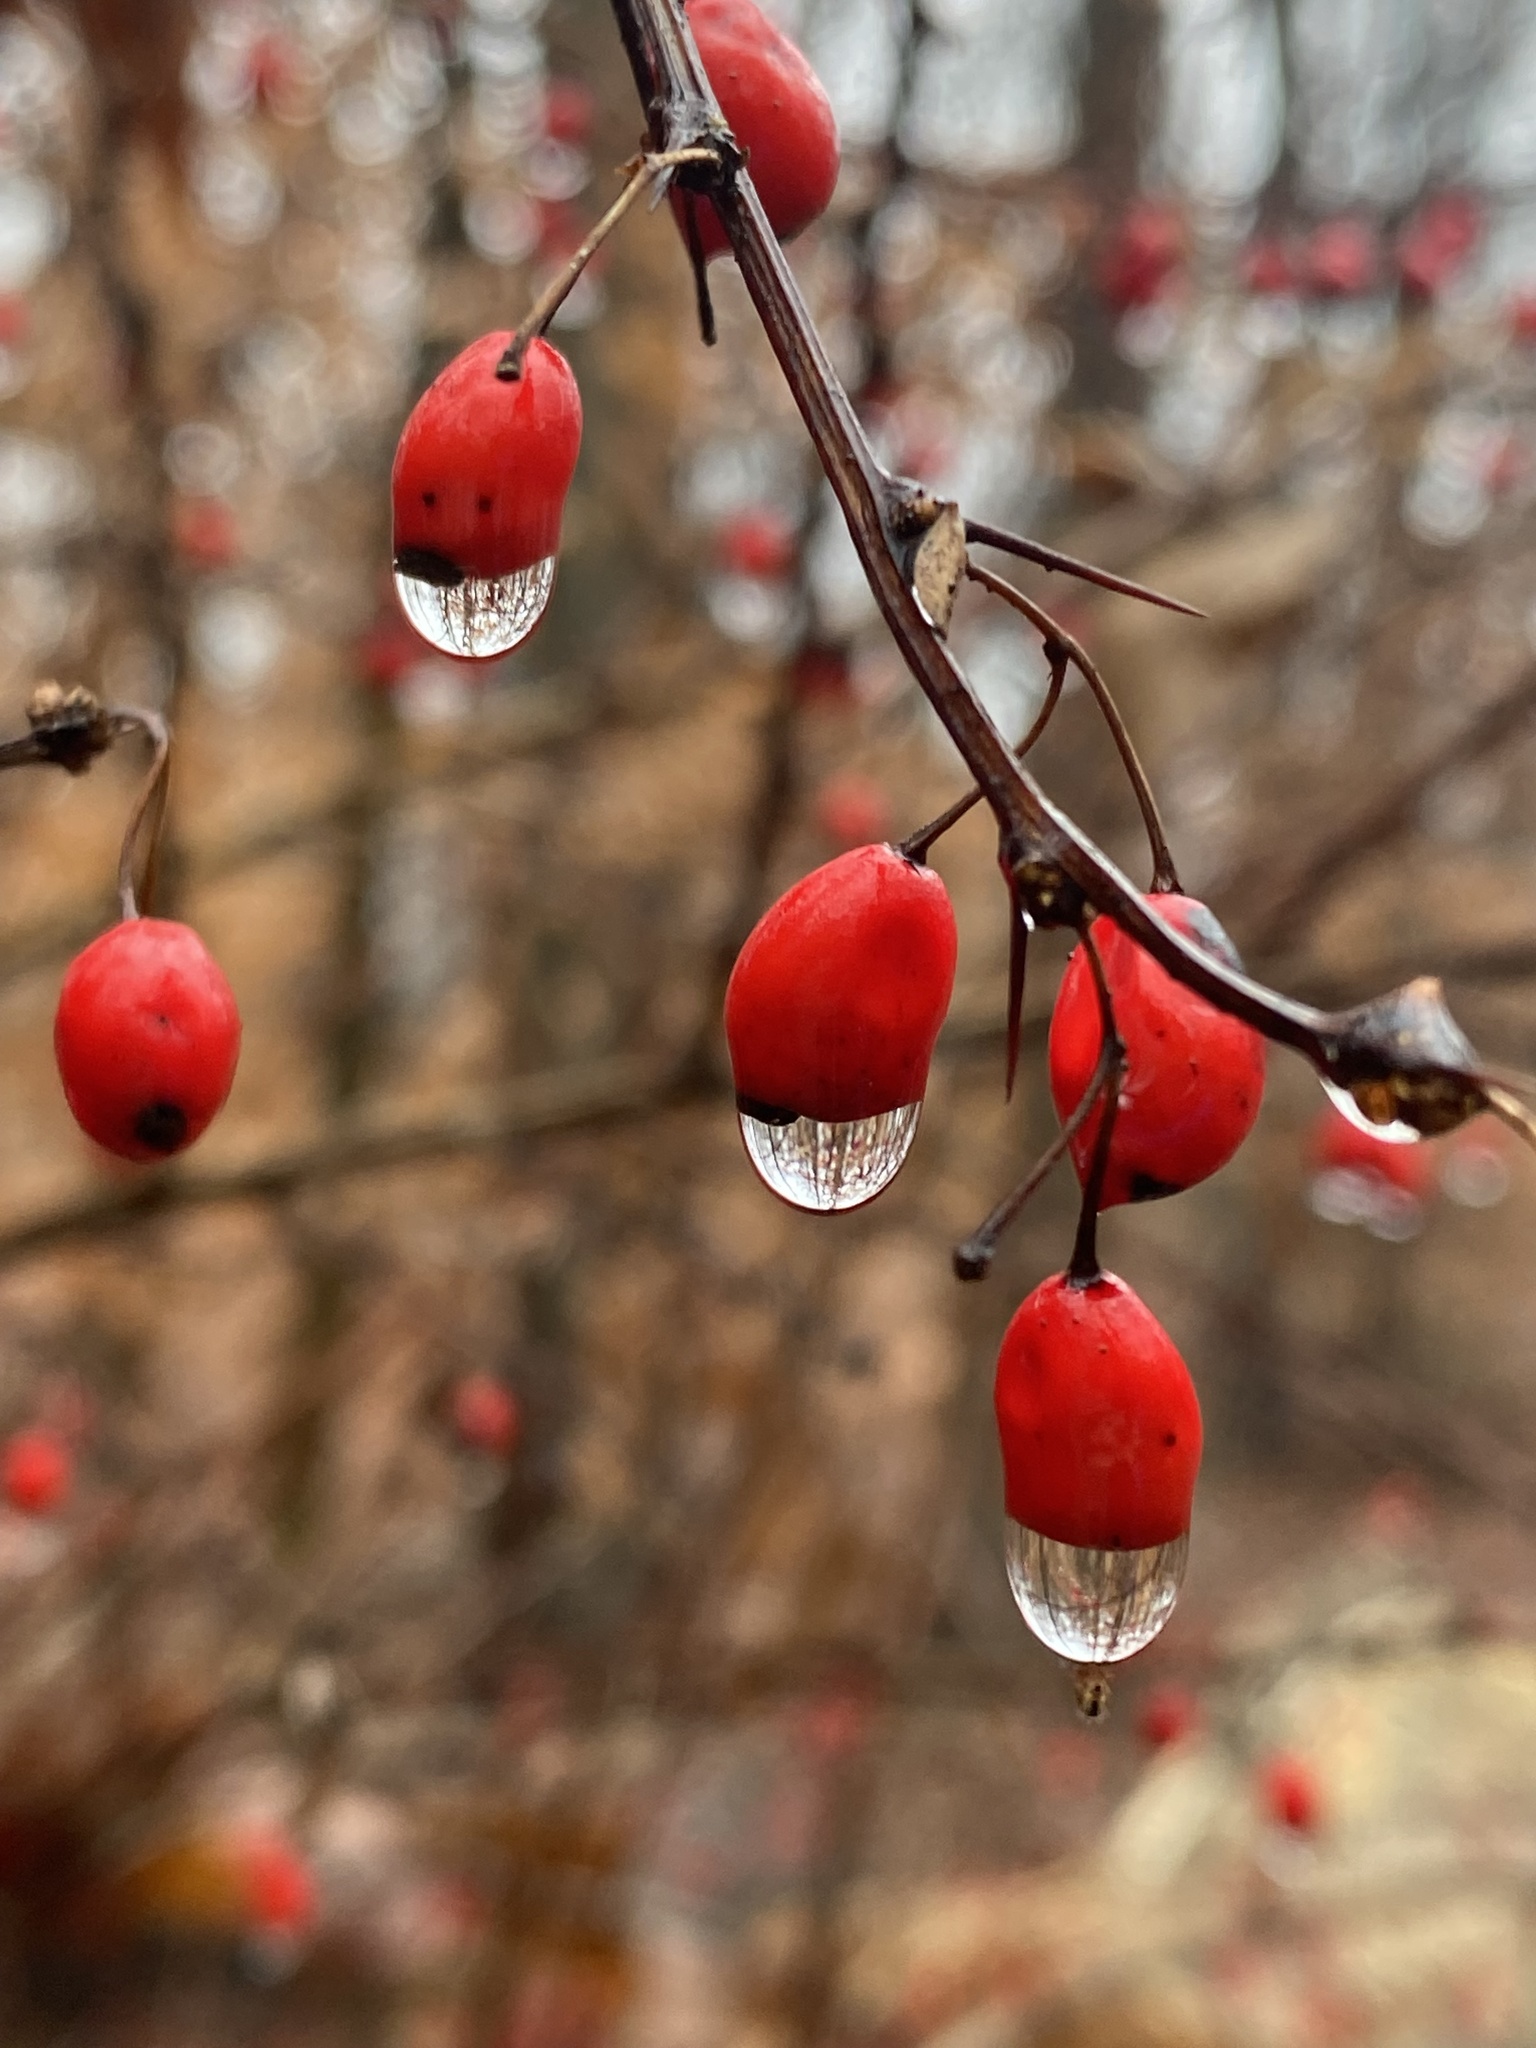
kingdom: Plantae
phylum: Tracheophyta
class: Magnoliopsida
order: Ranunculales
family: Berberidaceae
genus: Berberis
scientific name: Berberis thunbergii
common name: Japanese barberry
